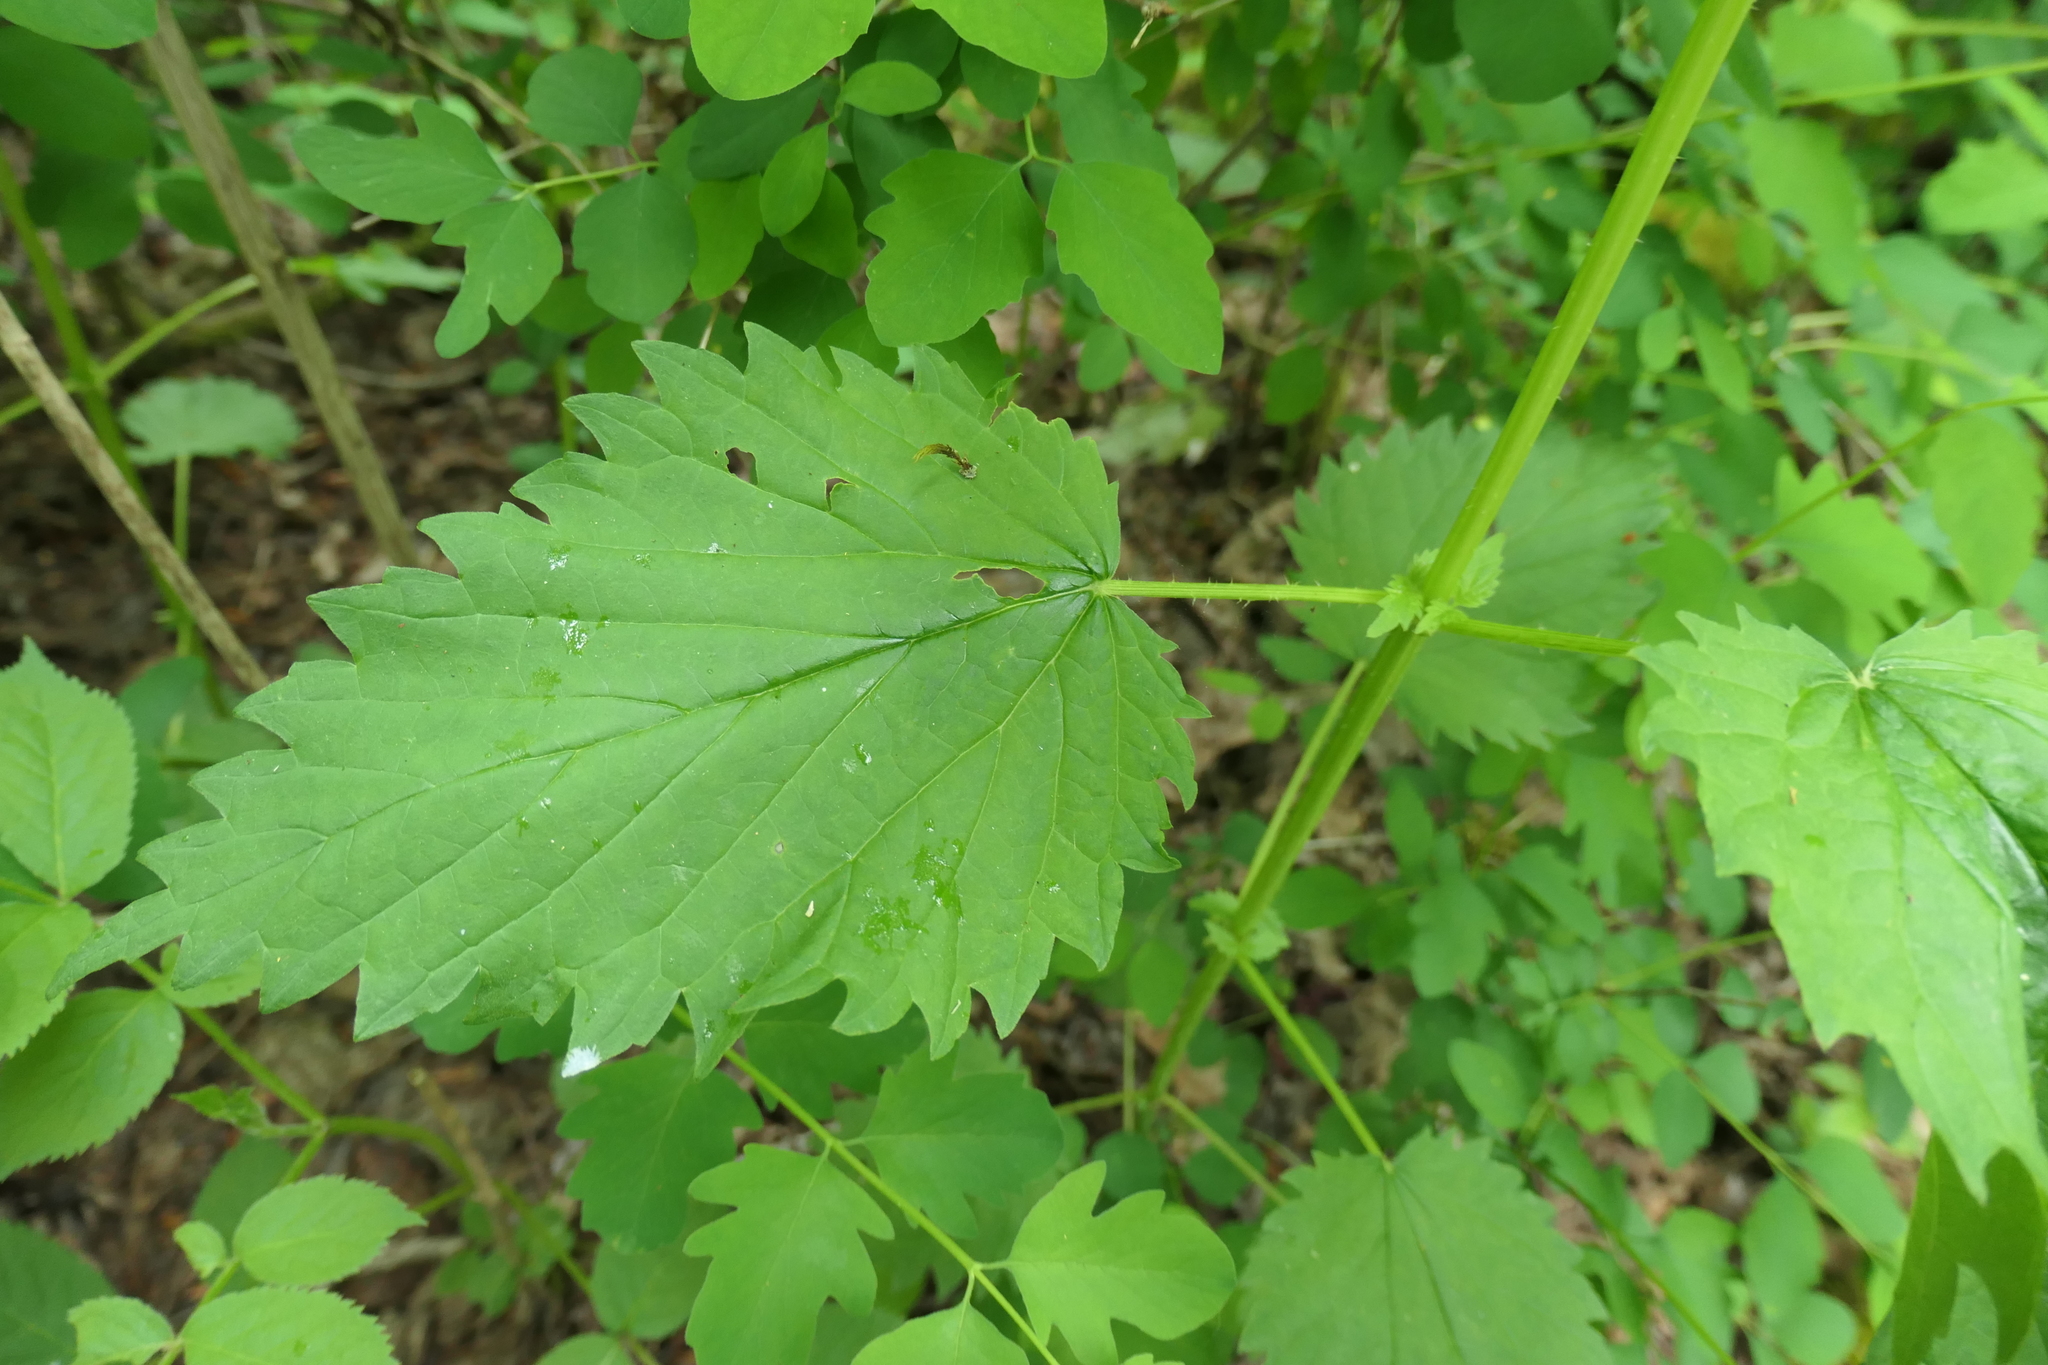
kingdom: Plantae
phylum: Tracheophyta
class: Magnoliopsida
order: Rosales
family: Urticaceae
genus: Urtica
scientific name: Urtica dioica
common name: Common nettle
